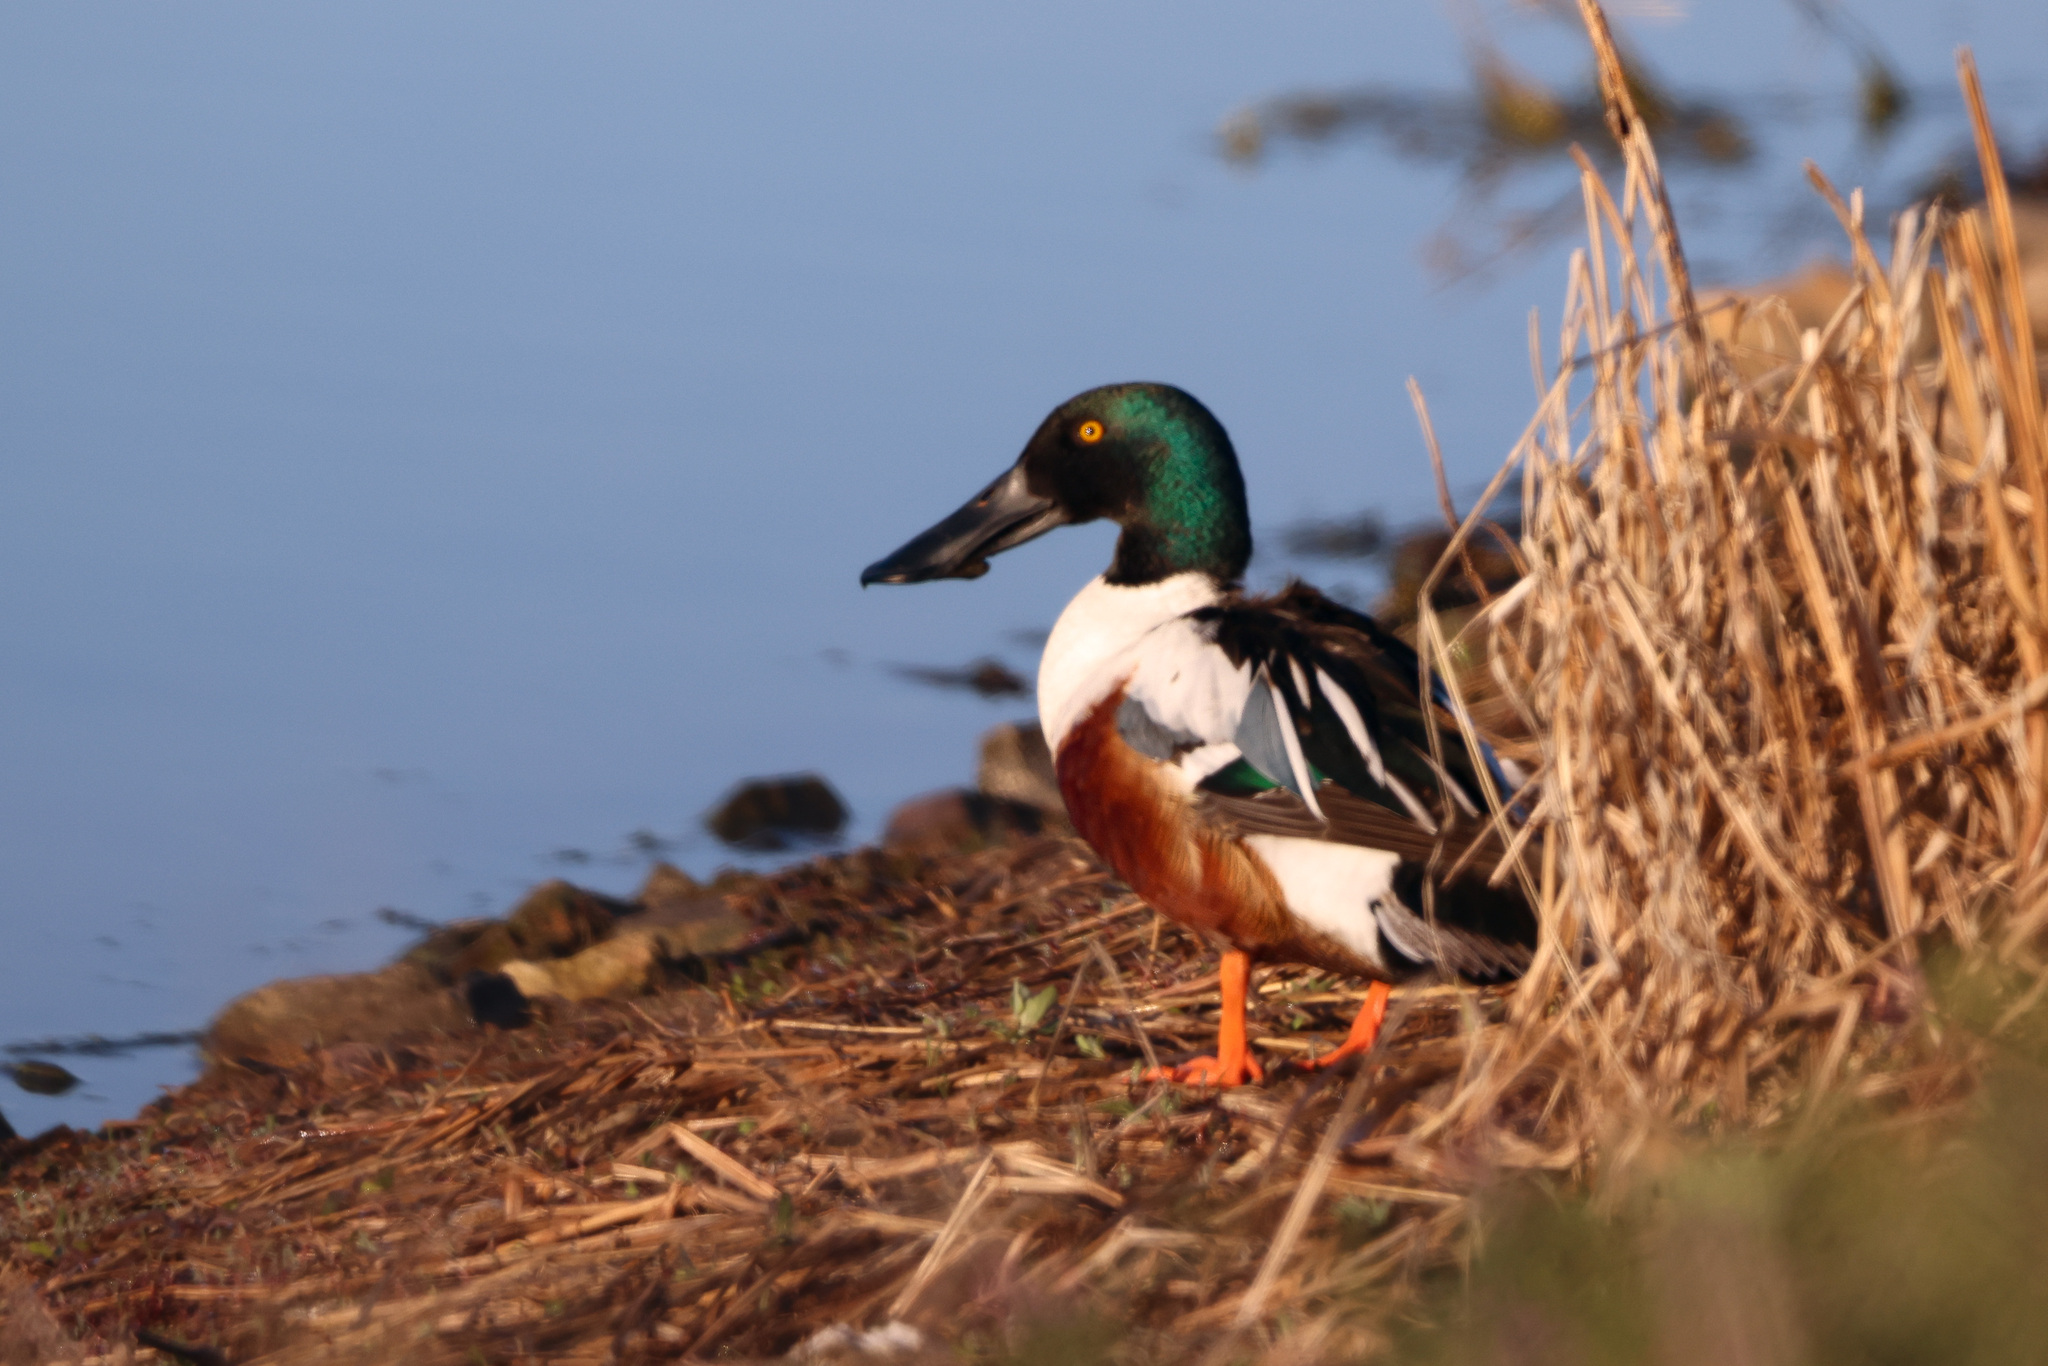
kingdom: Animalia
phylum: Chordata
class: Aves
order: Anseriformes
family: Anatidae
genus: Spatula
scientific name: Spatula clypeata
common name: Northern shoveler
